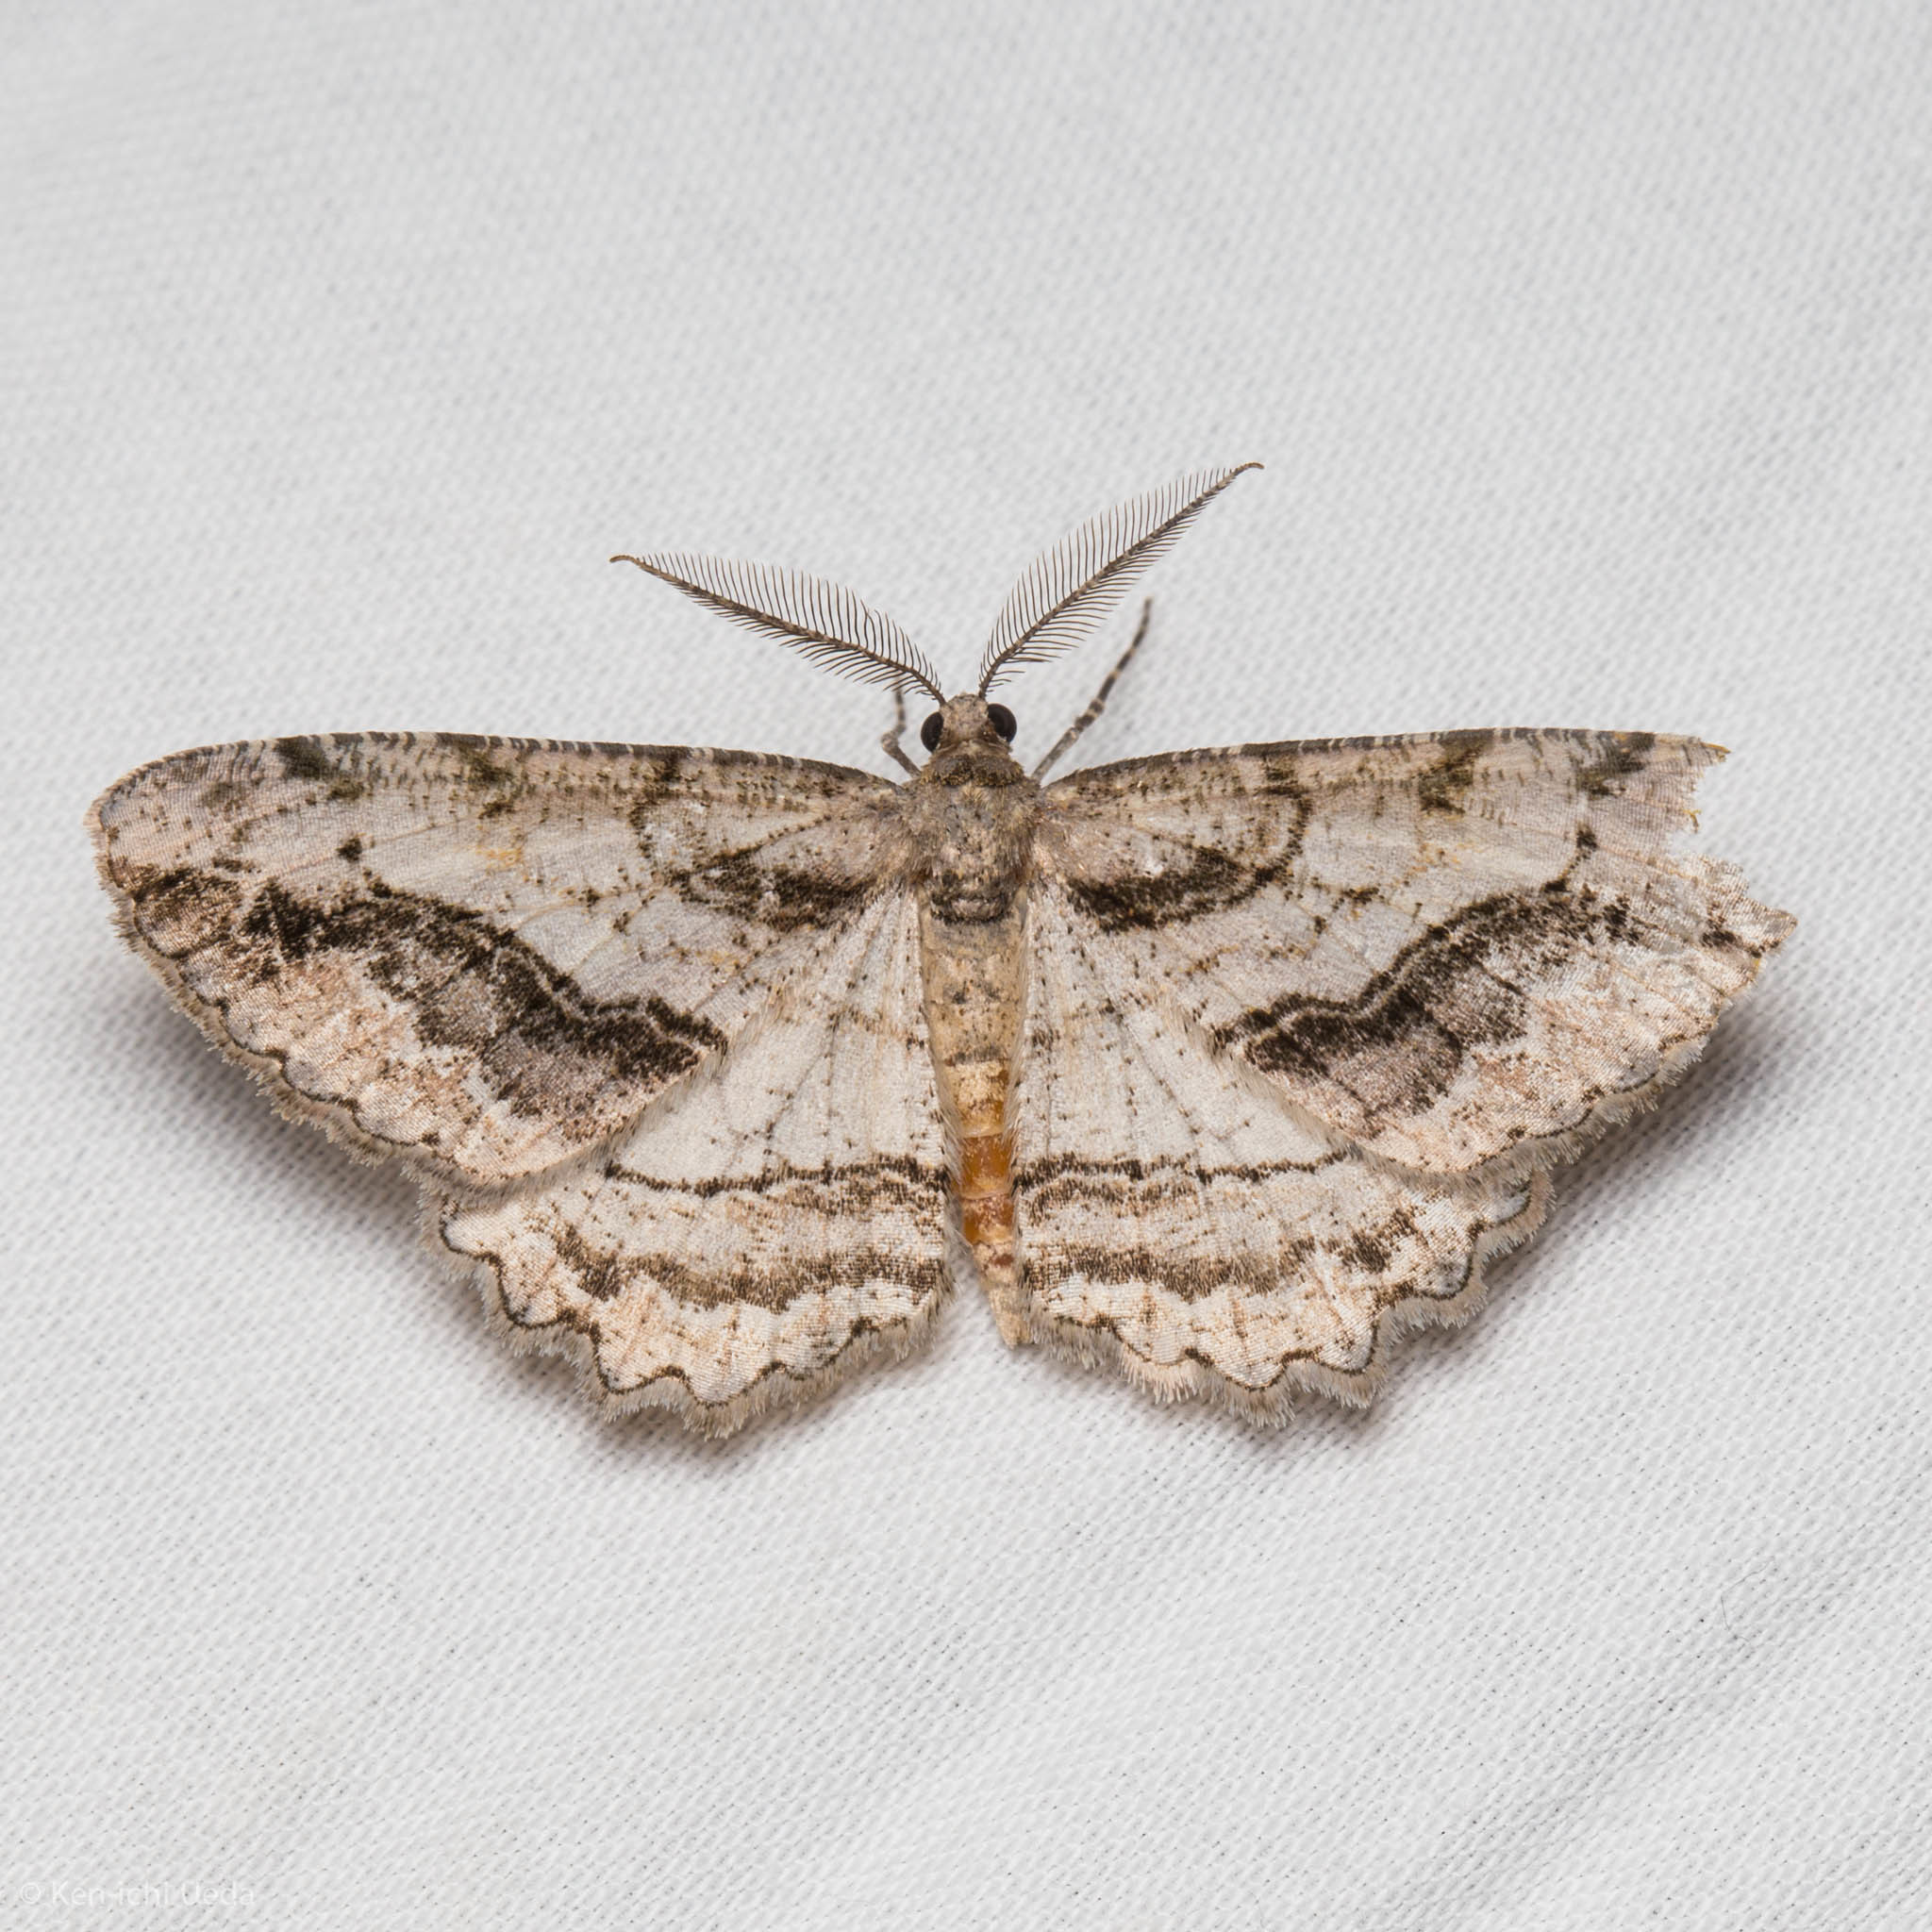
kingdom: Animalia
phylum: Arthropoda
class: Insecta
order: Lepidoptera
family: Geometridae
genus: Neoalcis
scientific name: Neoalcis californiaria
